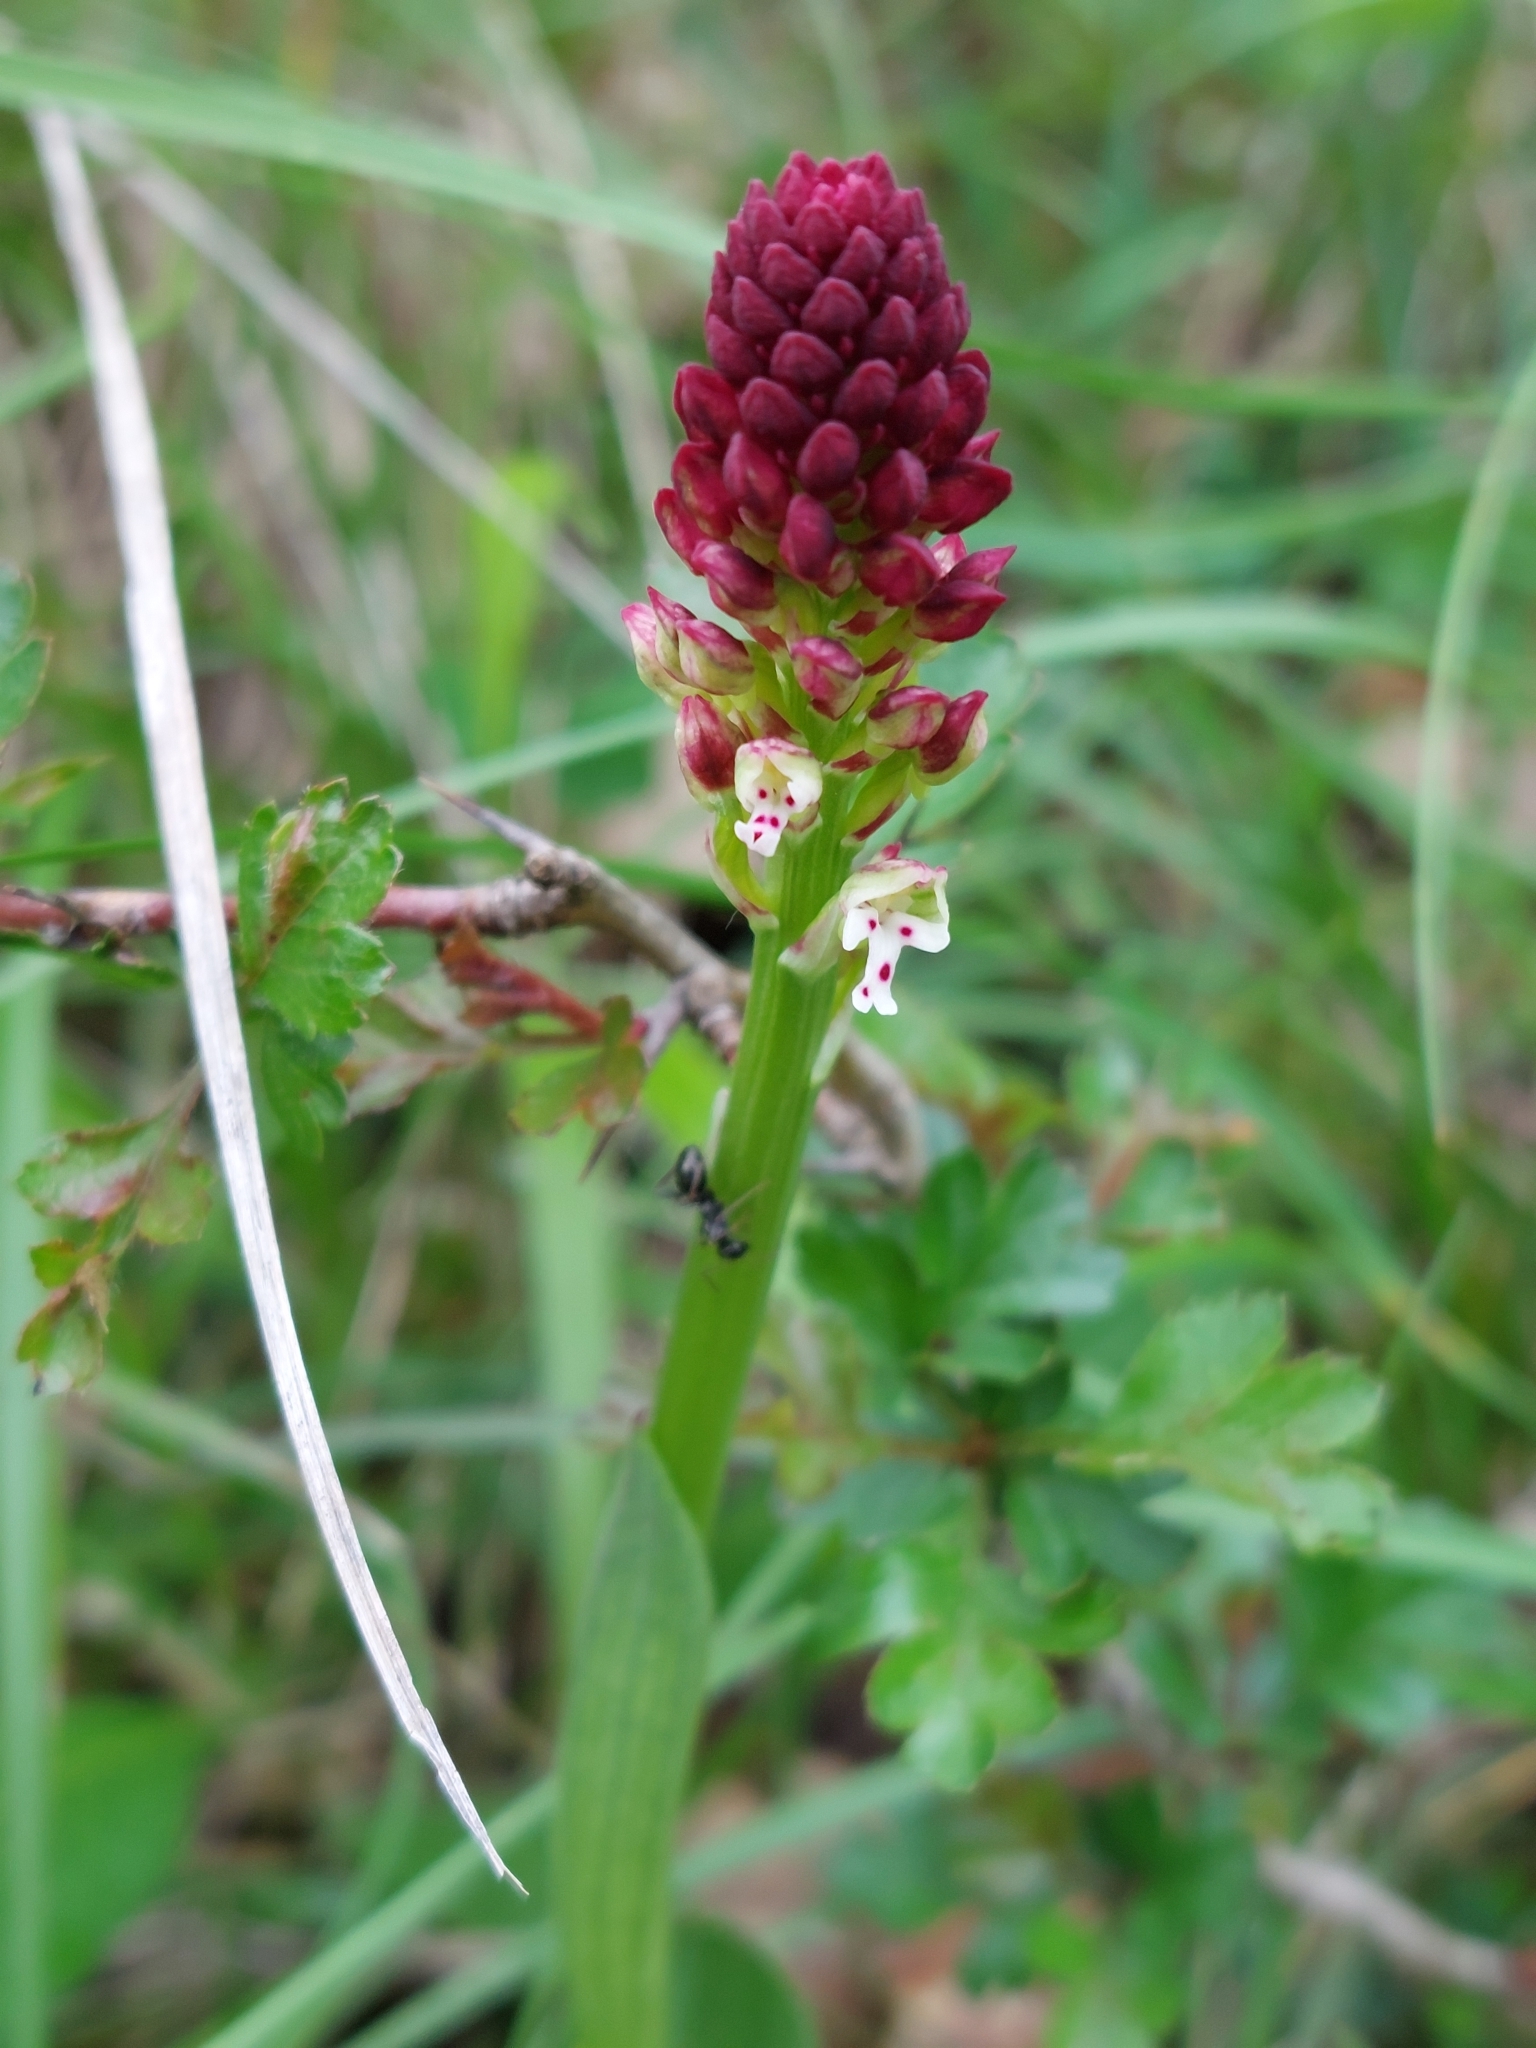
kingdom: Plantae
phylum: Tracheophyta
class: Liliopsida
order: Asparagales
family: Orchidaceae
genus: Neotinea
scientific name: Neotinea ustulata
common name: Burnt orchid
